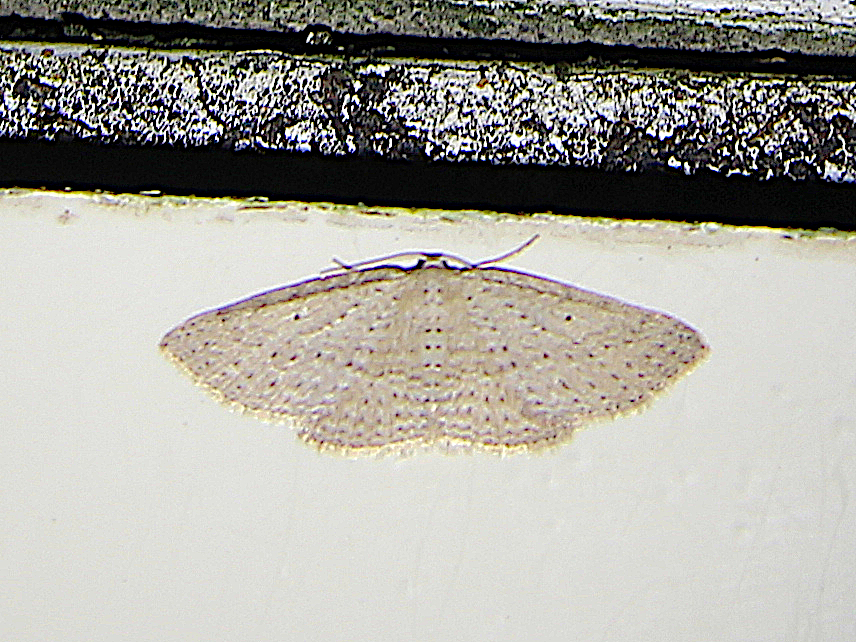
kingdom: Animalia
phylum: Arthropoda
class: Insecta
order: Lepidoptera
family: Geometridae
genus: Poecilasthena
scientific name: Poecilasthena schistaria
